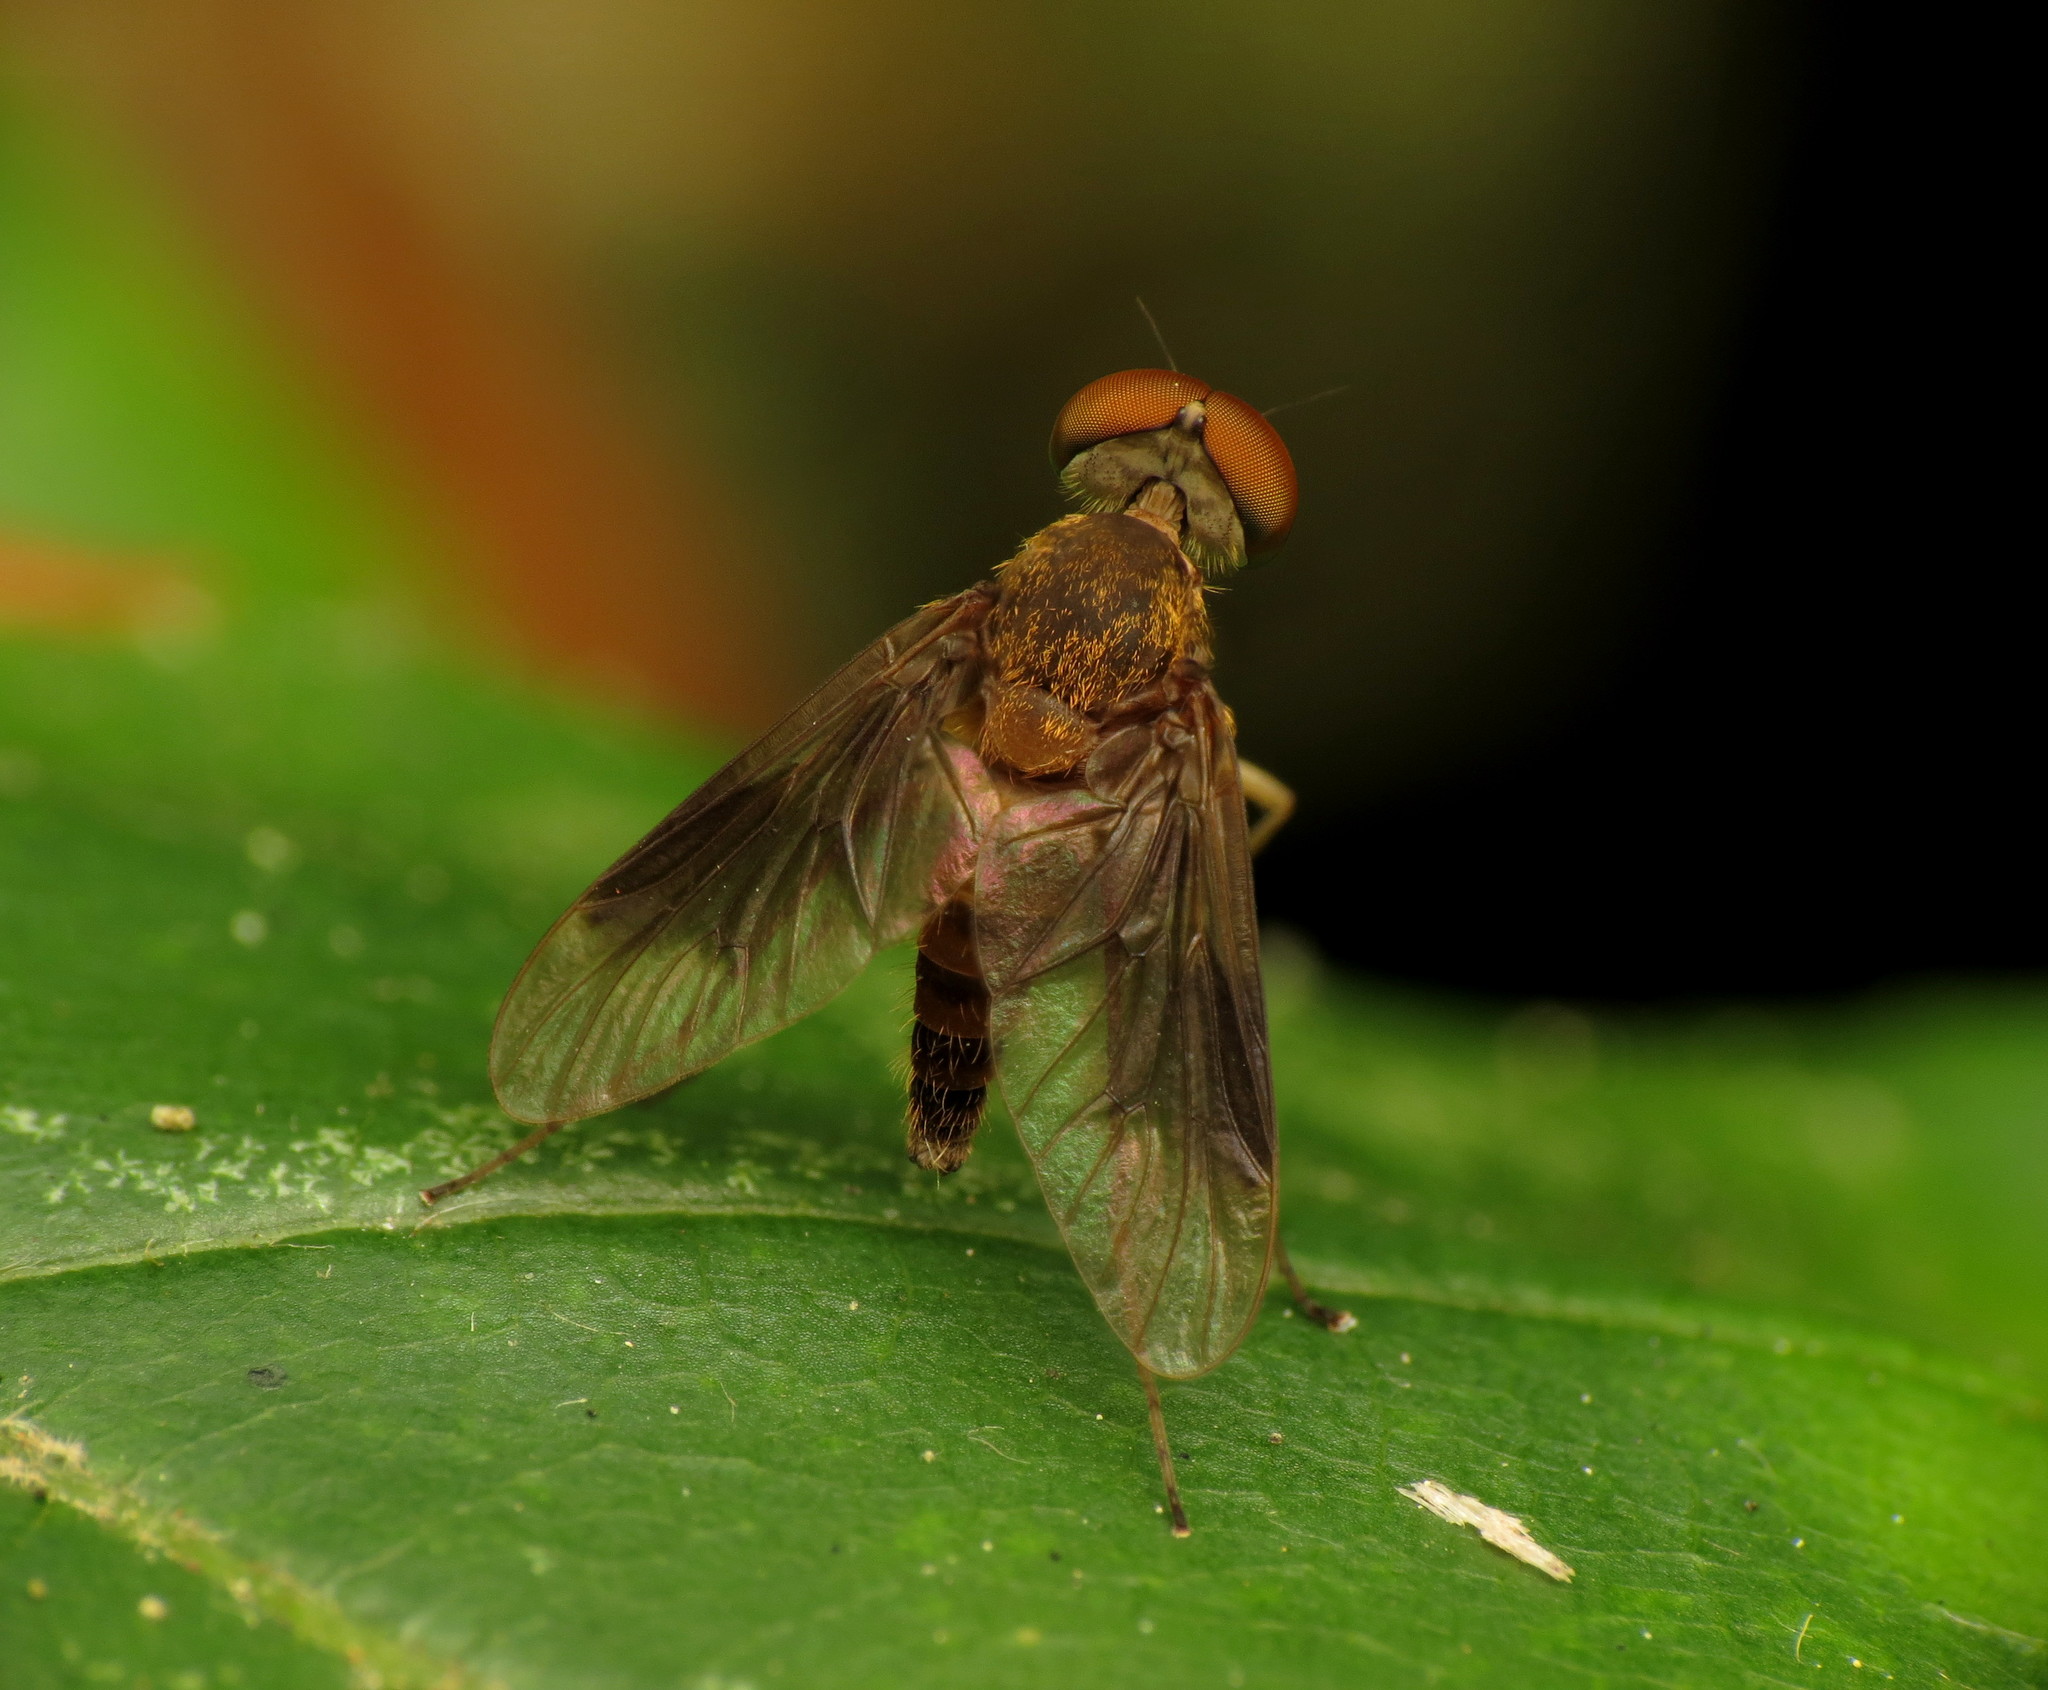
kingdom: Animalia
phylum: Arthropoda
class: Insecta
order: Diptera
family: Rhagionidae
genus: Chrysopilus
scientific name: Chrysopilus quadratus
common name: Quadrate snipe fly
